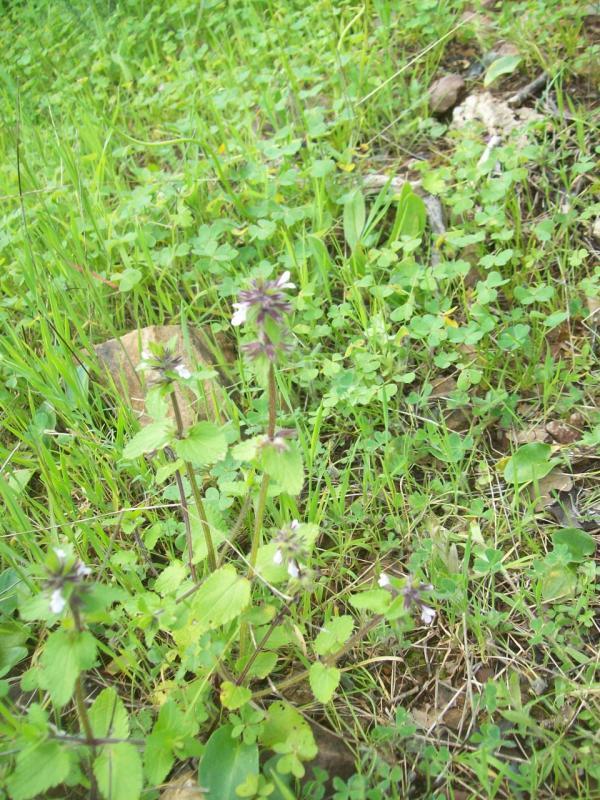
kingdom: Plantae
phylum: Tracheophyta
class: Magnoliopsida
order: Lamiales
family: Lamiaceae
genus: Stachys
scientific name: Stachys arvensis
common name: Field woundwort
